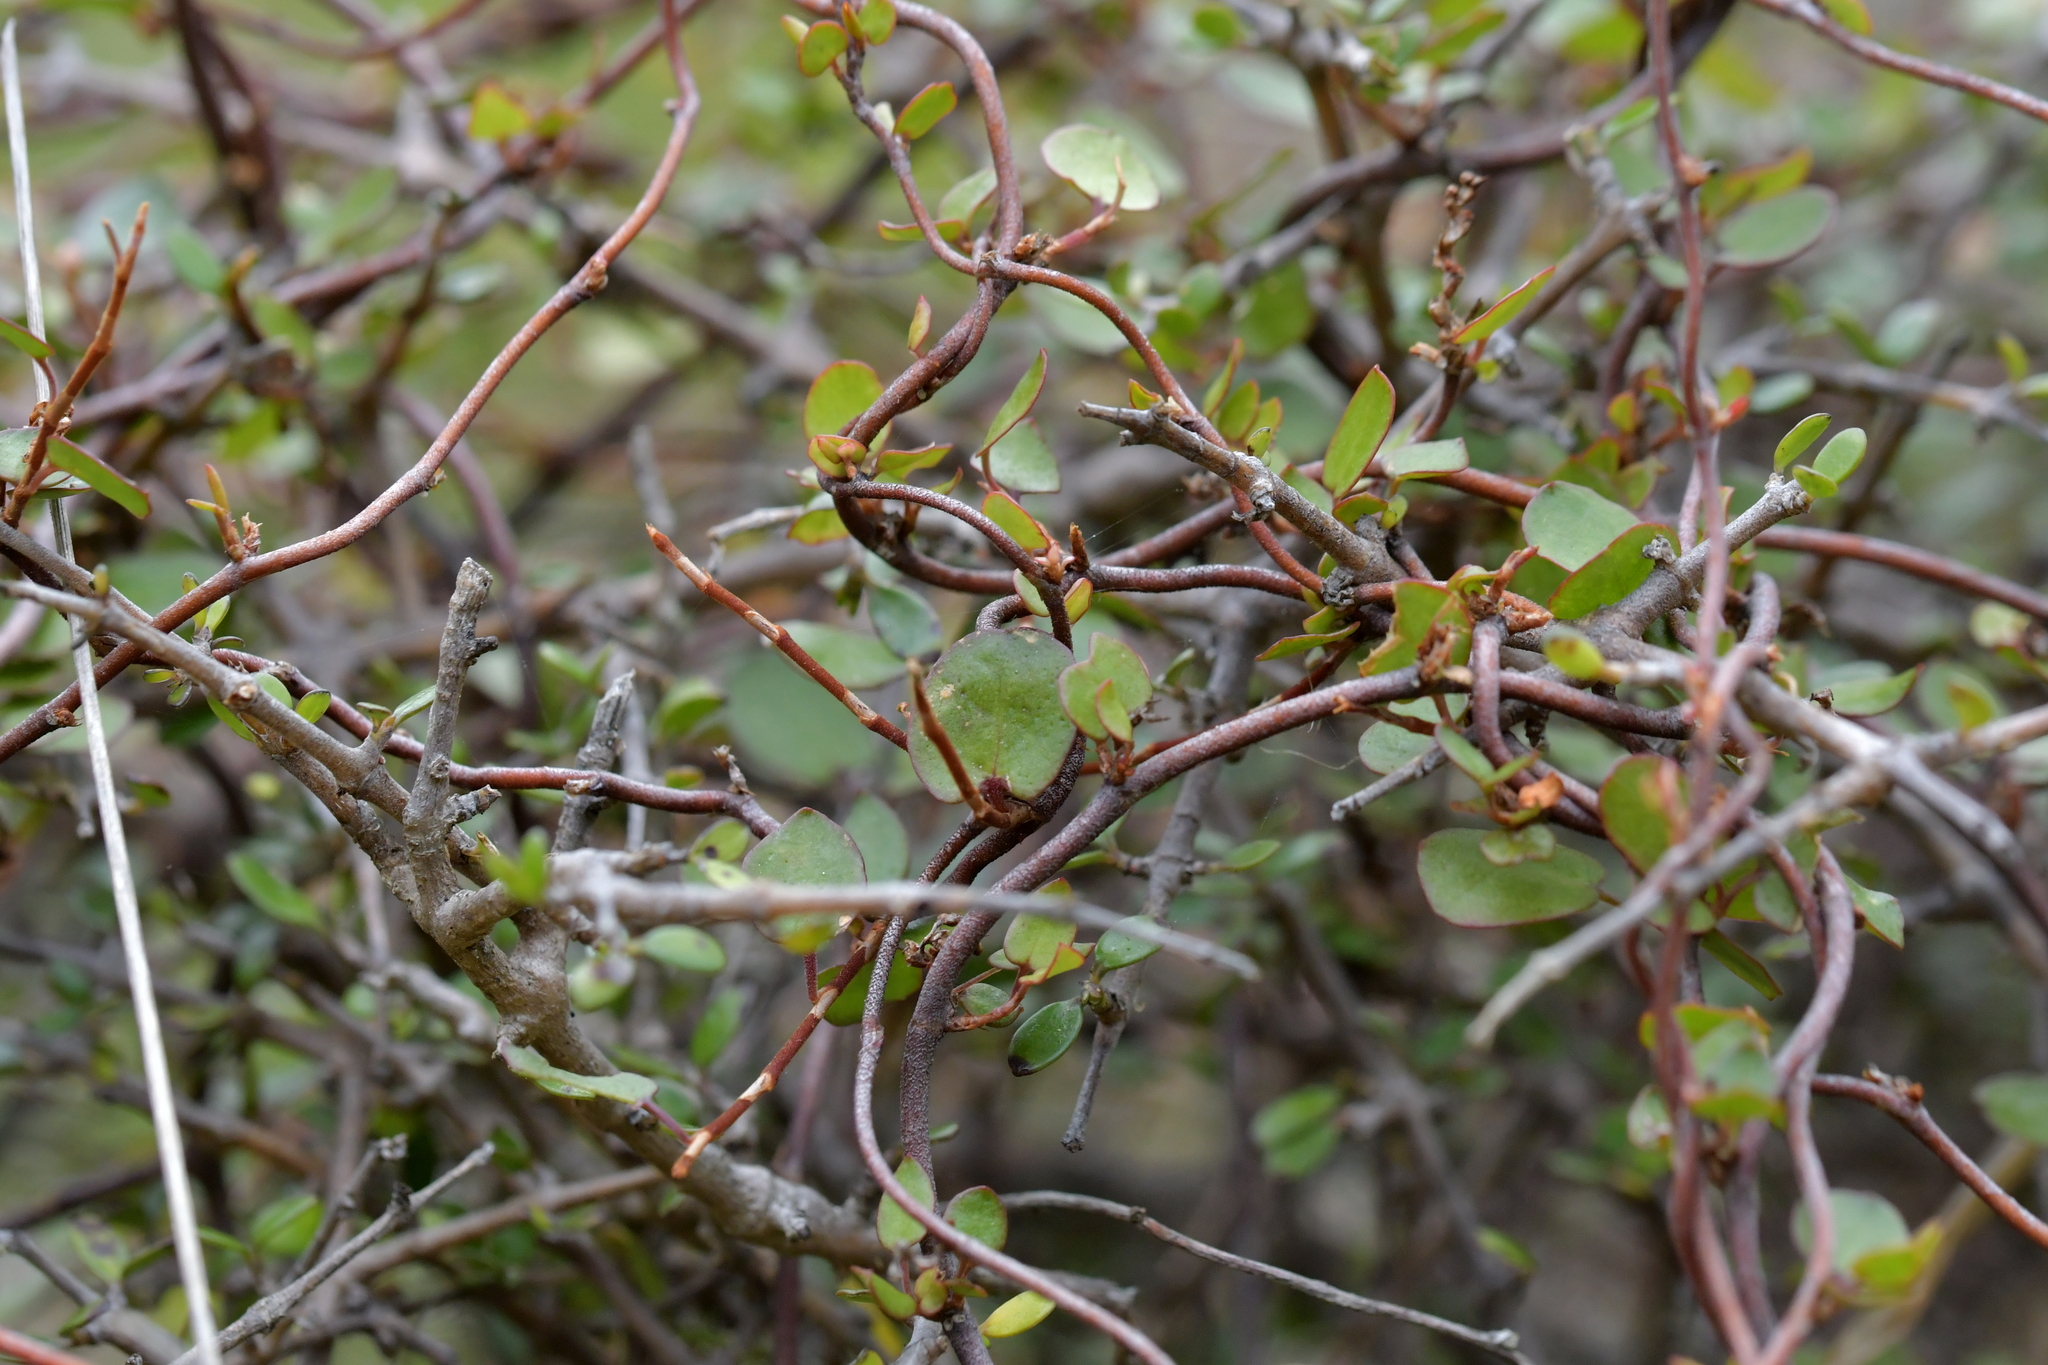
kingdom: Plantae
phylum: Tracheophyta
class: Magnoliopsida
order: Caryophyllales
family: Polygonaceae
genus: Muehlenbeckia
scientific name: Muehlenbeckia complexa
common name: Wireplant
